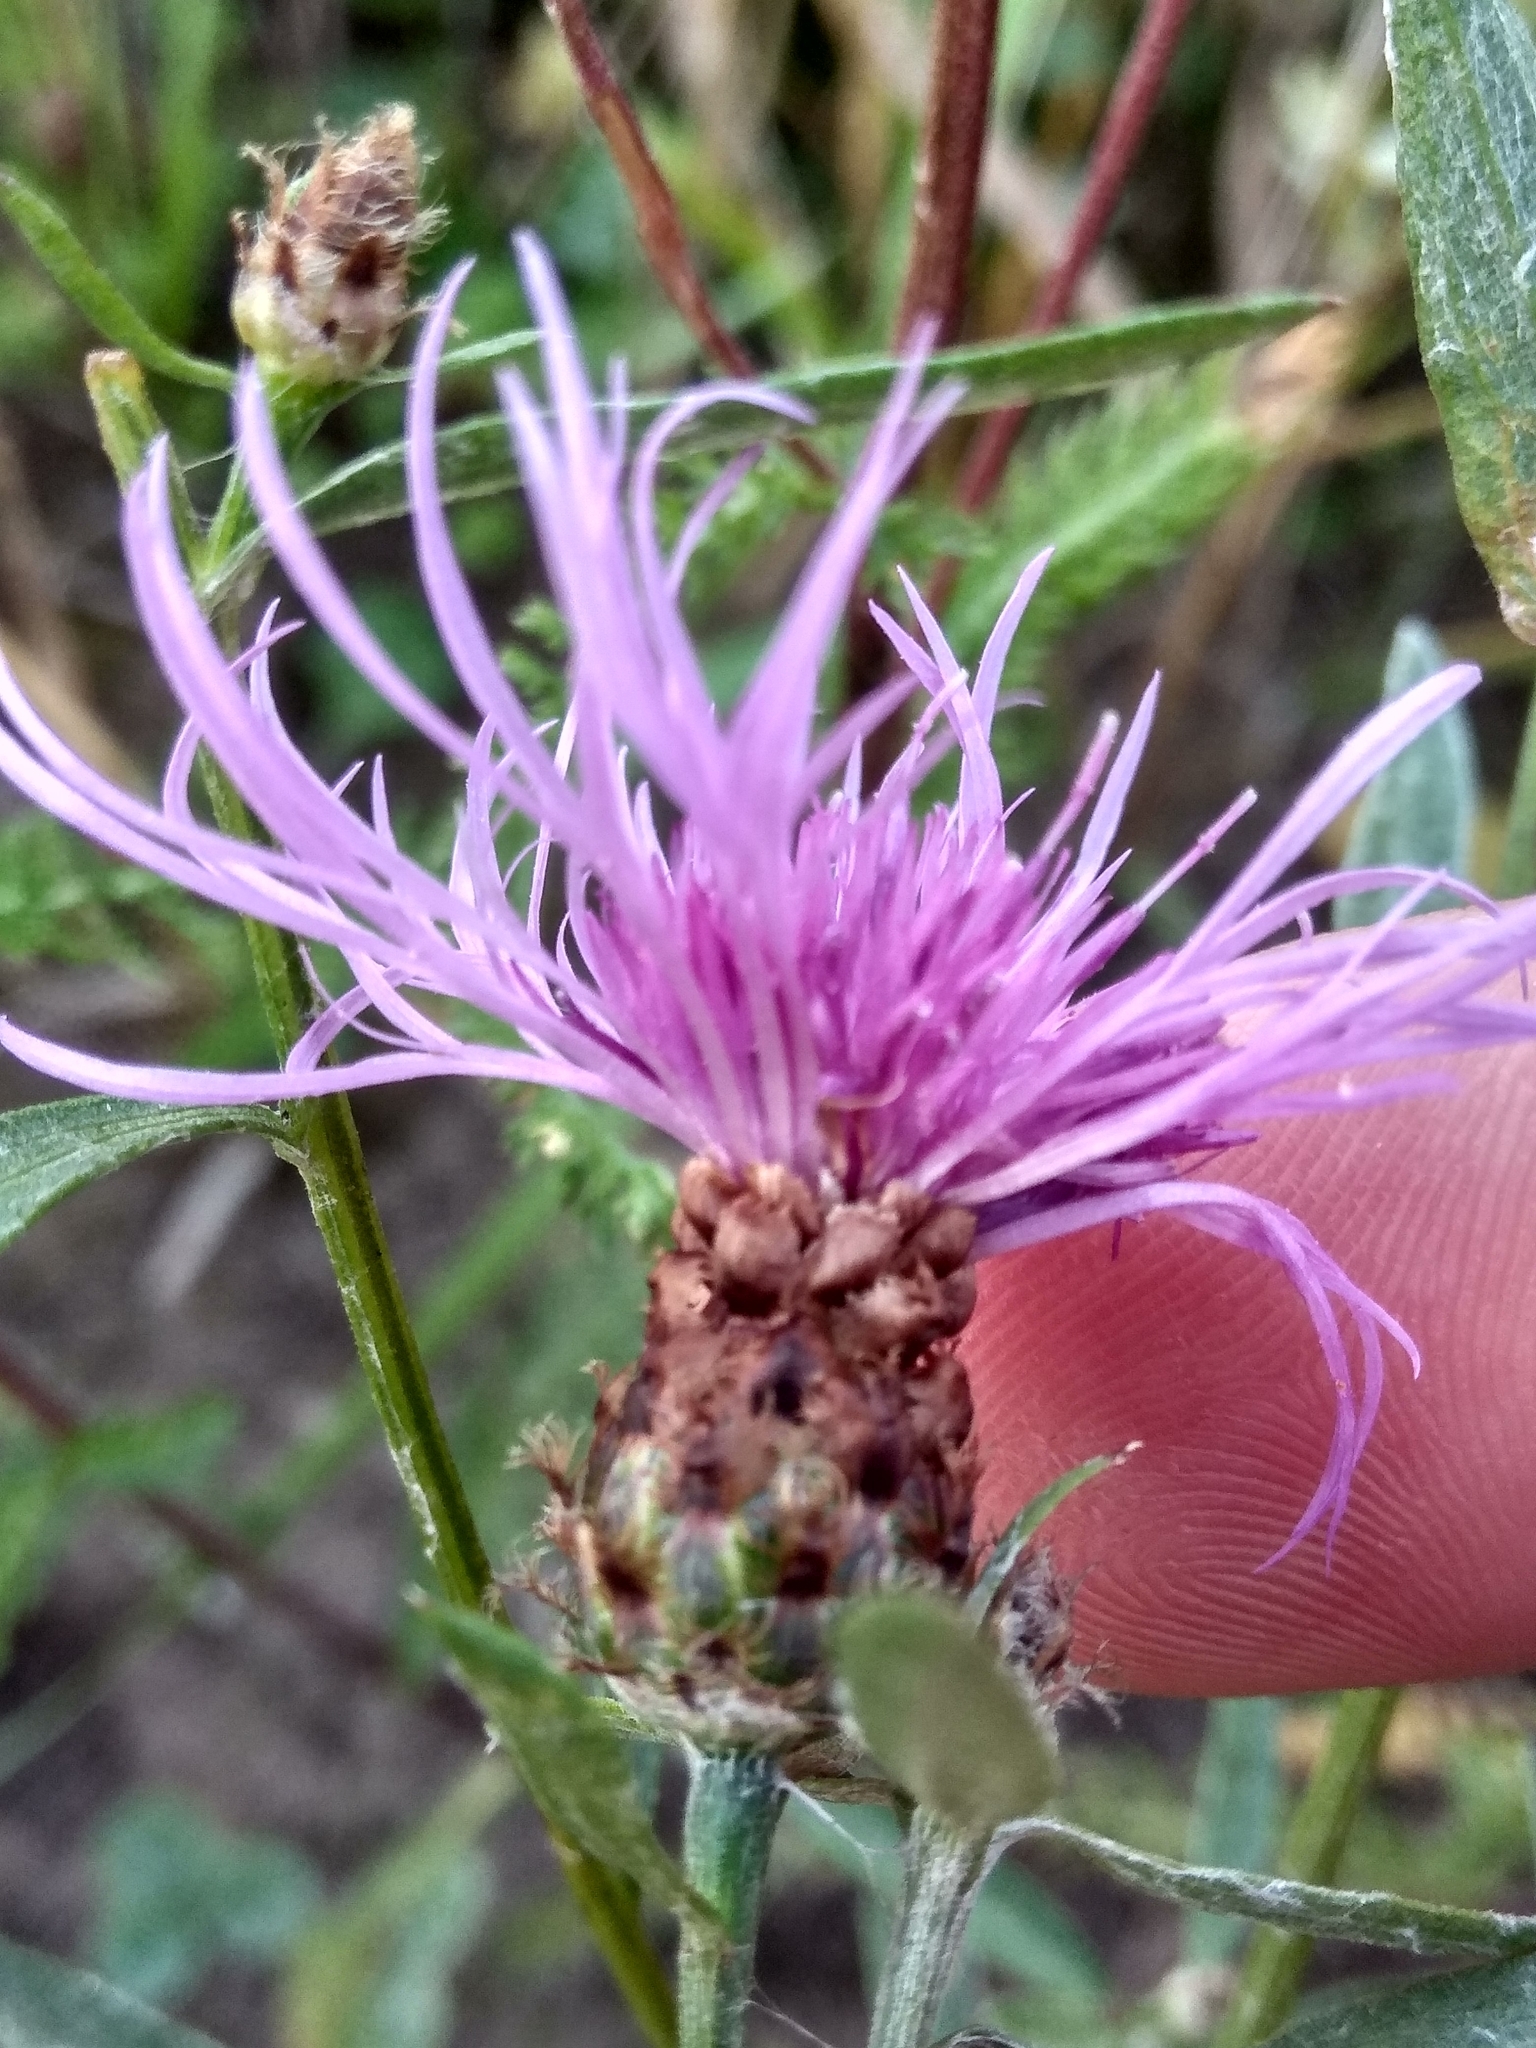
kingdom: Plantae
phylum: Tracheophyta
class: Magnoliopsida
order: Asterales
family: Asteraceae
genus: Centaurea
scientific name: Centaurea jacea
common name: Brown knapweed
